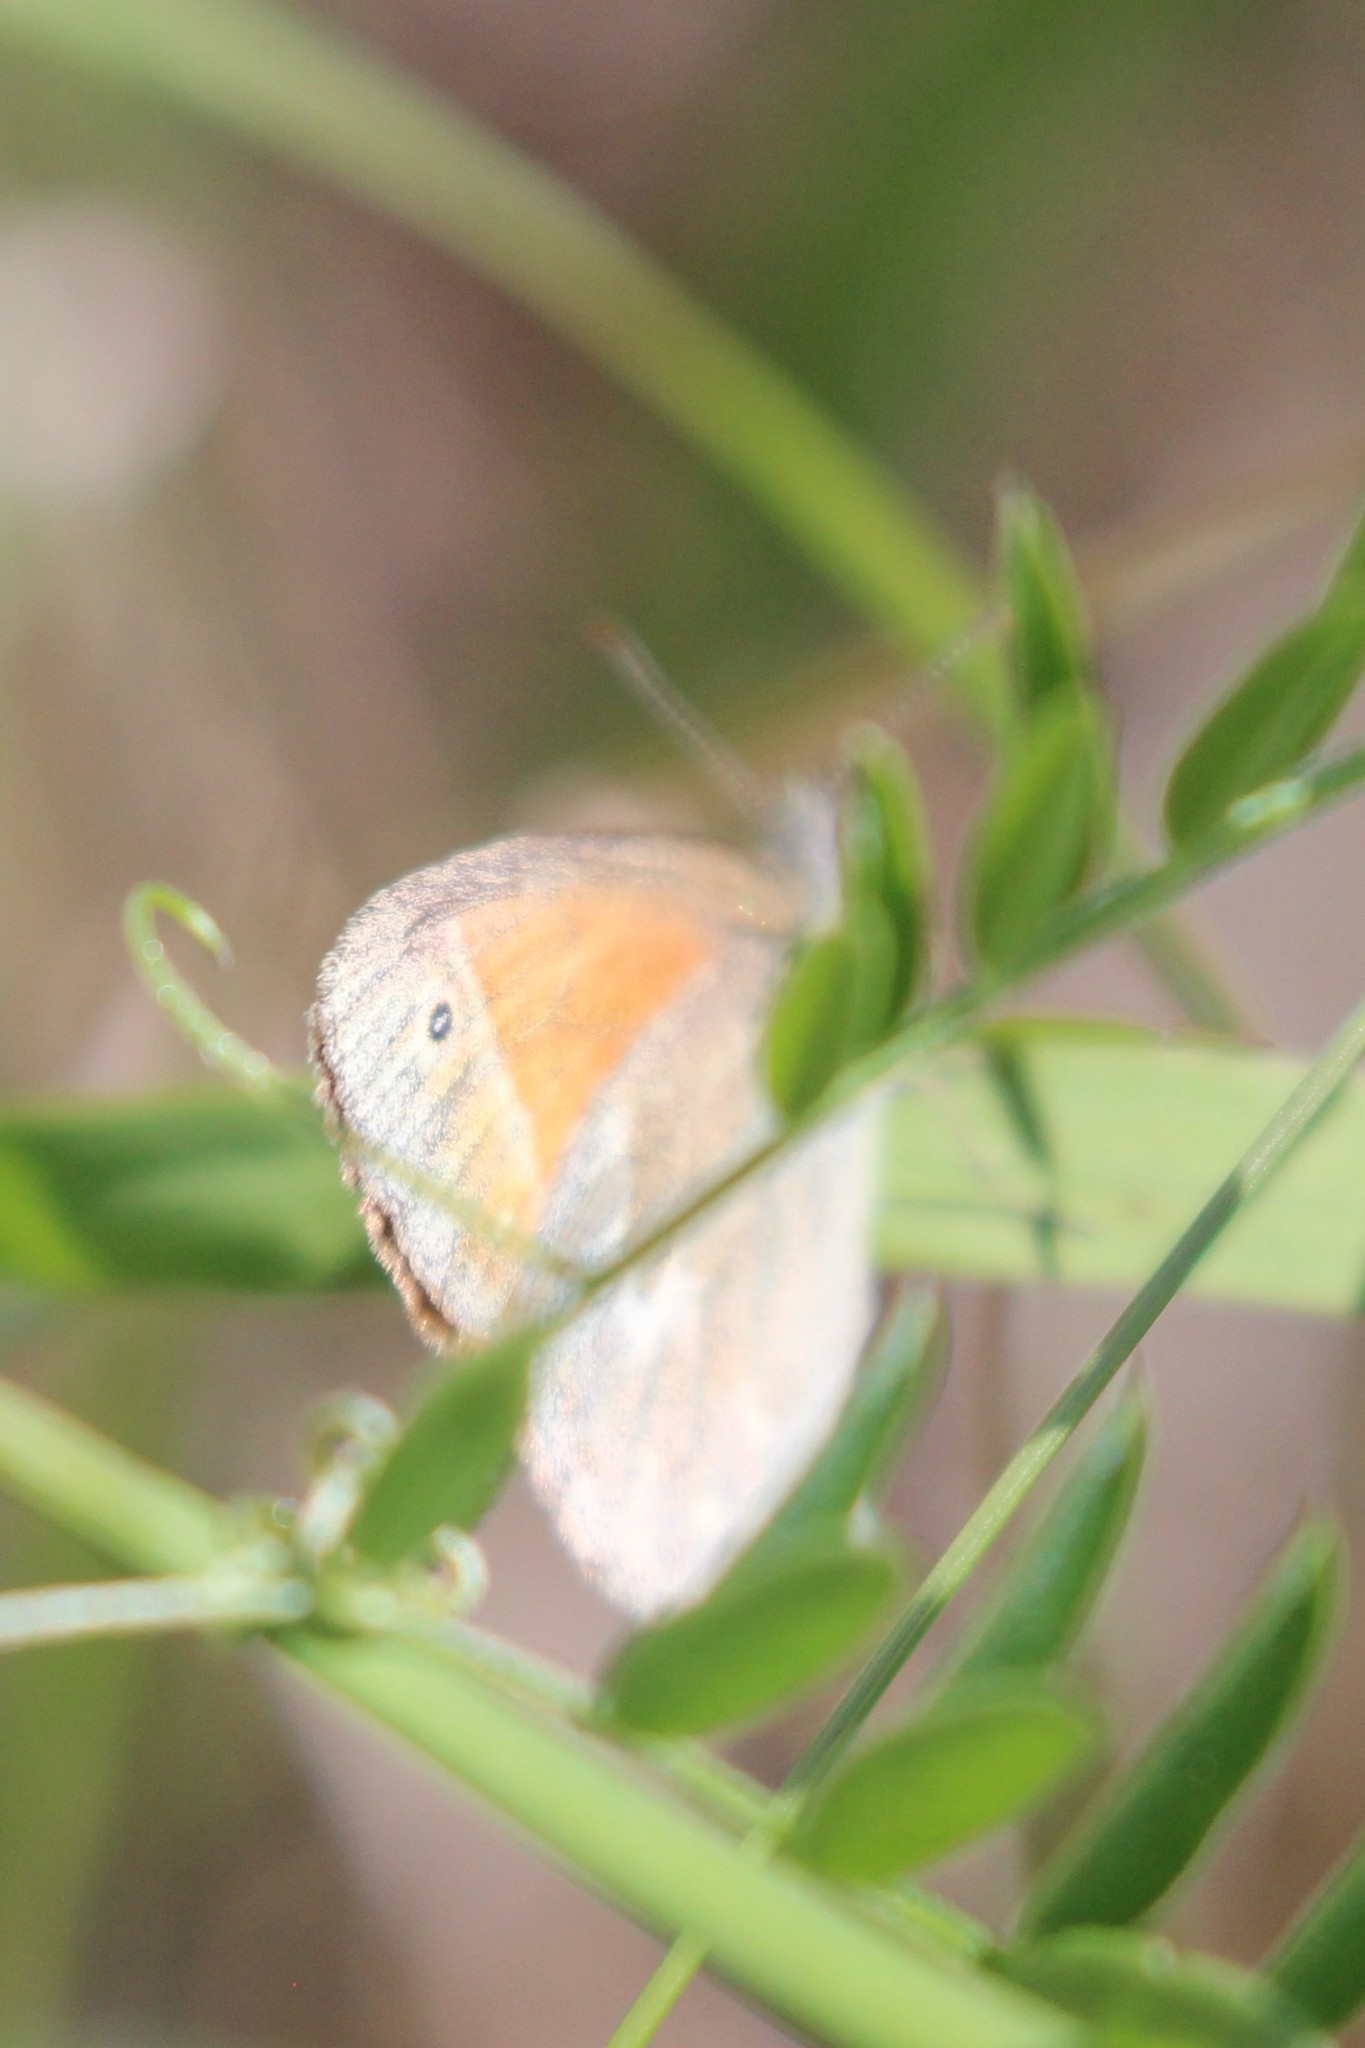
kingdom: Animalia
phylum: Arthropoda
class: Insecta
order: Lepidoptera
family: Nymphalidae
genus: Coenonympha
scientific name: Coenonympha california
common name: Common ringlet
